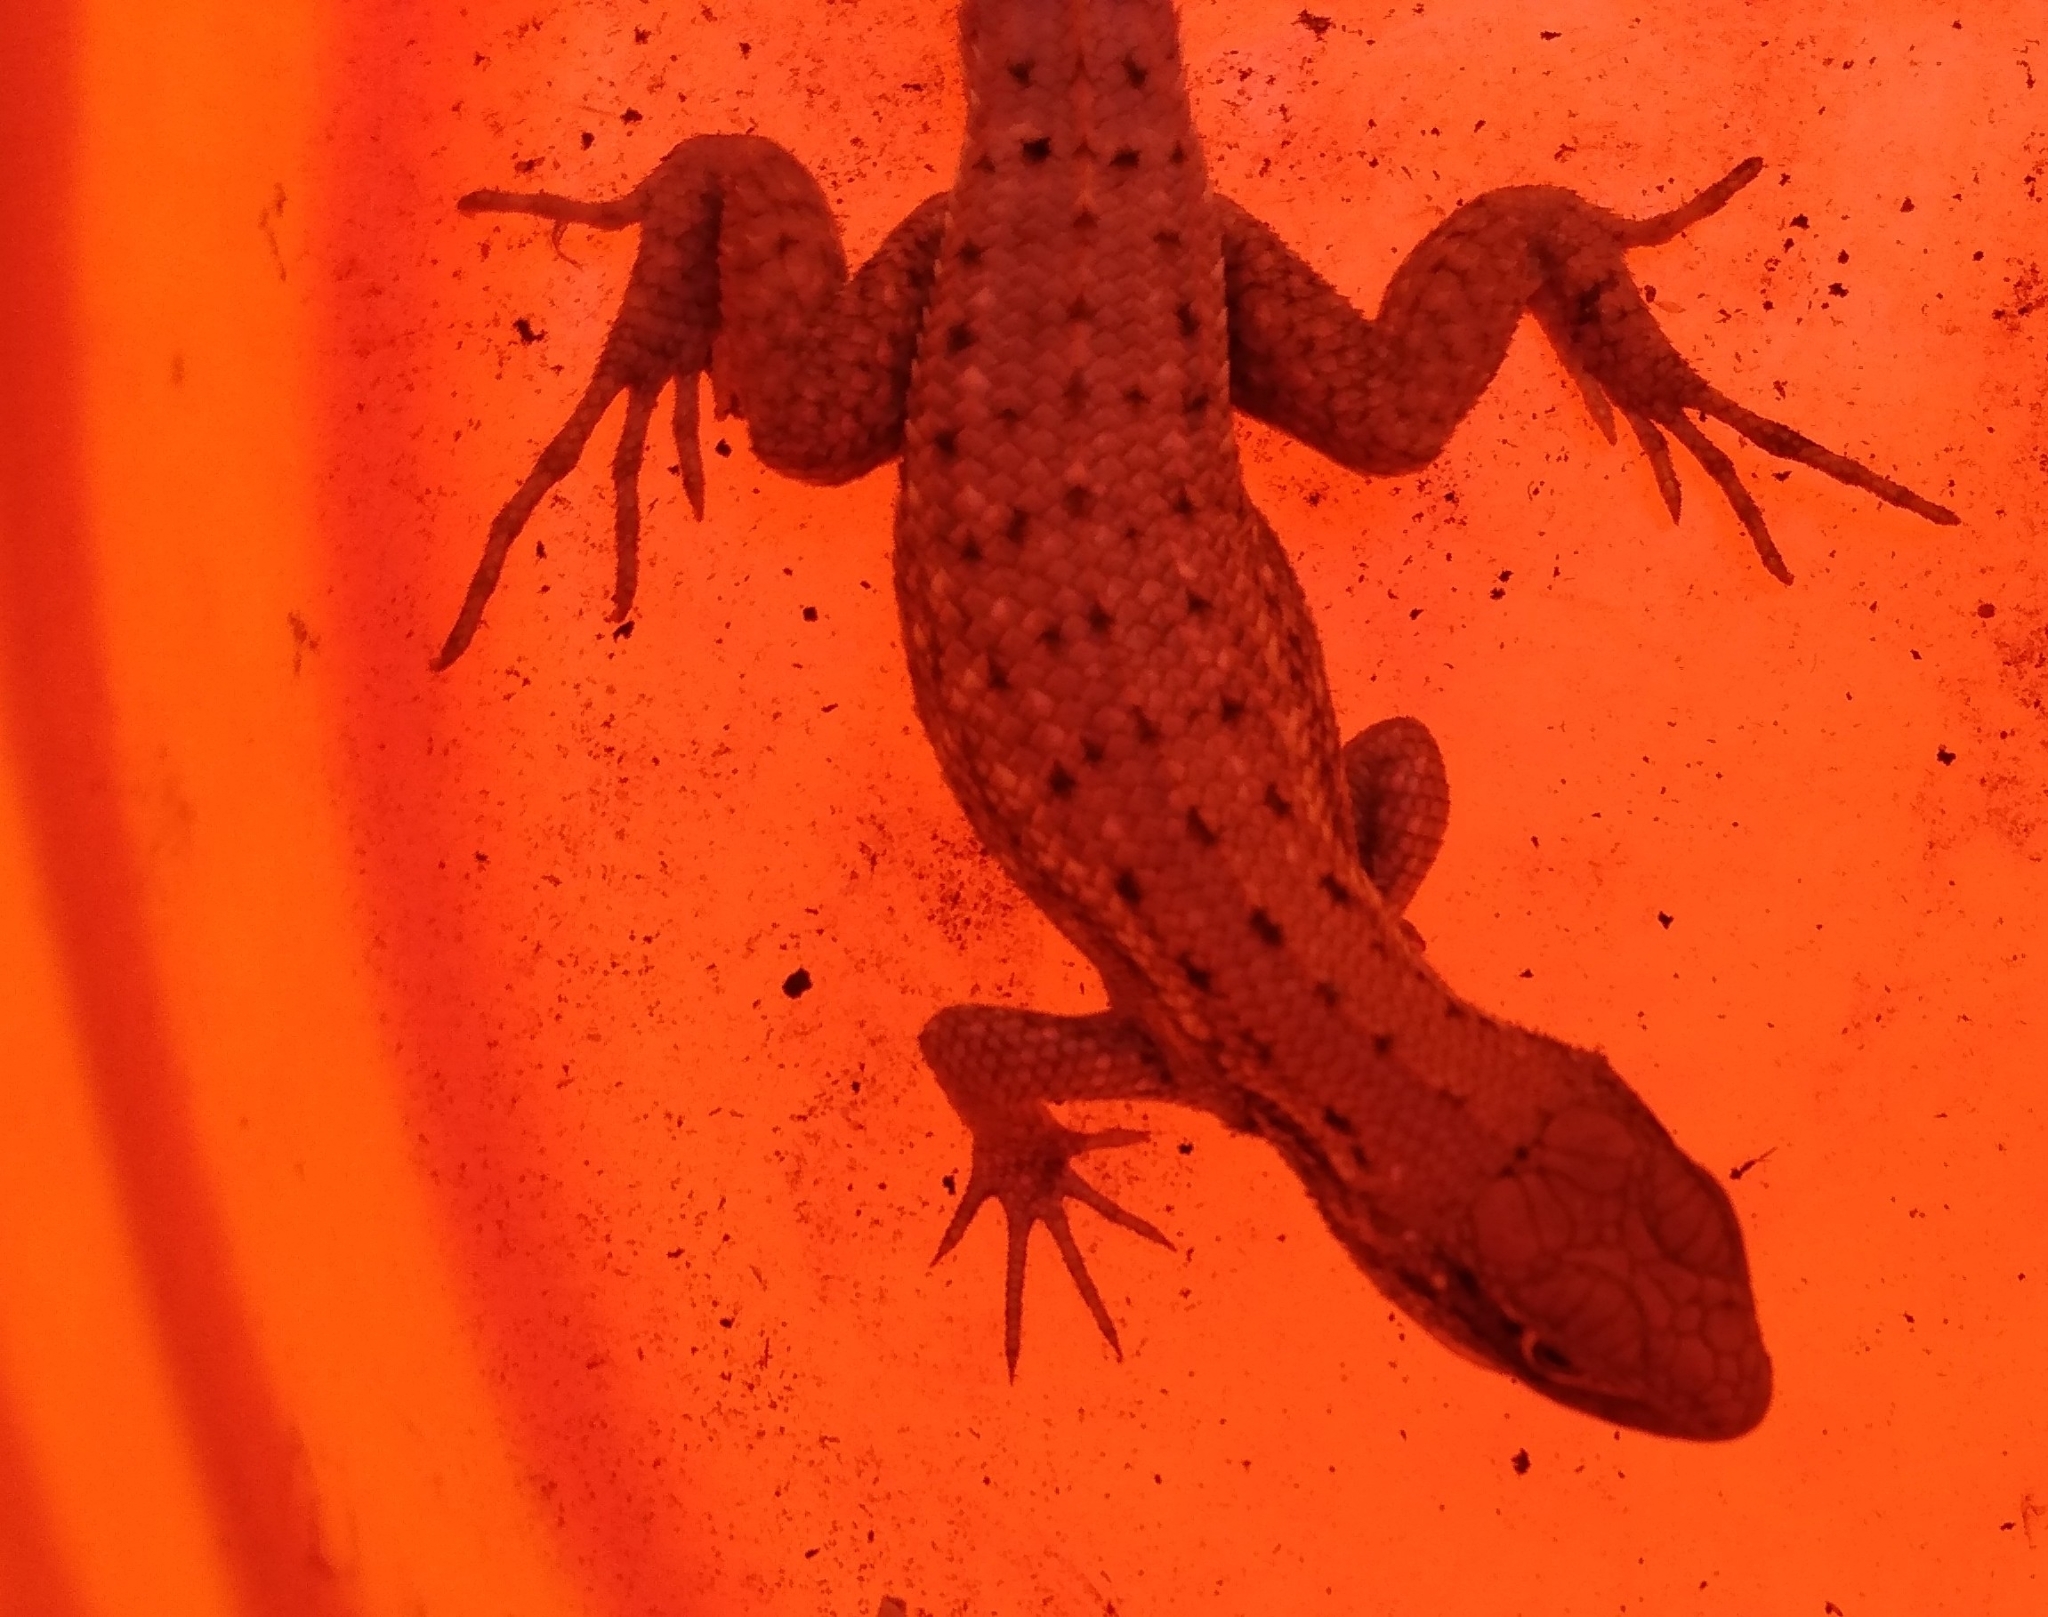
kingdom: Animalia
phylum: Chordata
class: Squamata
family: Leiocephalidae
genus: Leiocephalus
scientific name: Leiocephalus carinatus
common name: Northern curly-tailed lizard
